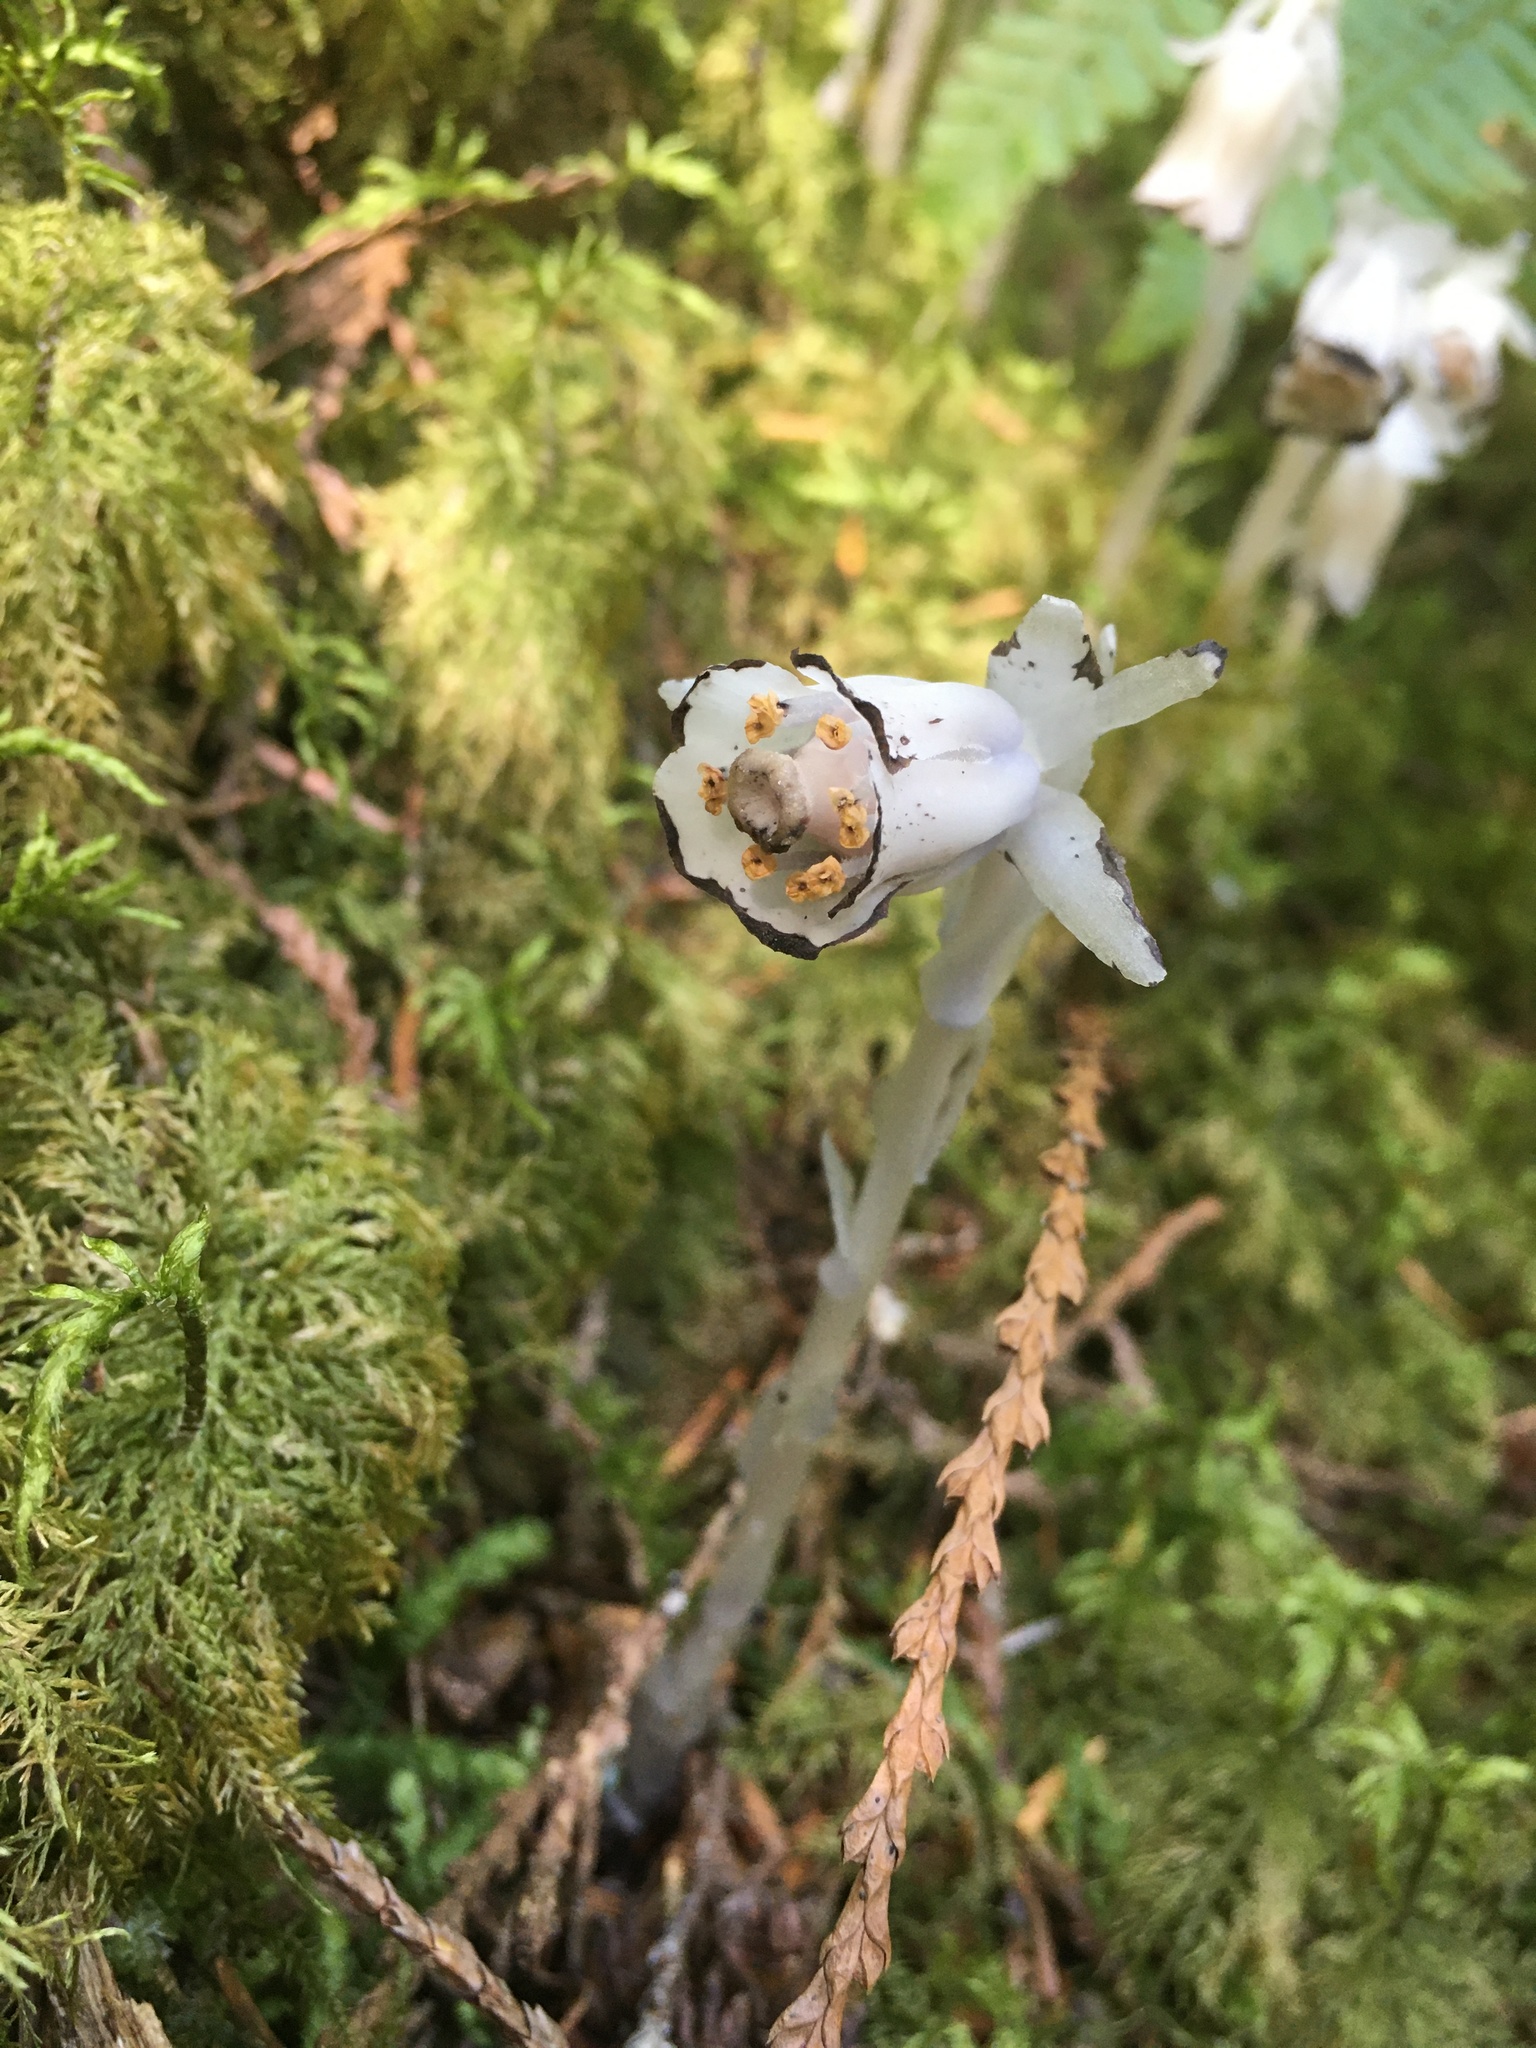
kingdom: Plantae
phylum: Tracheophyta
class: Magnoliopsida
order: Ericales
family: Ericaceae
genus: Monotropa
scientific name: Monotropa uniflora
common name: Convulsion root
